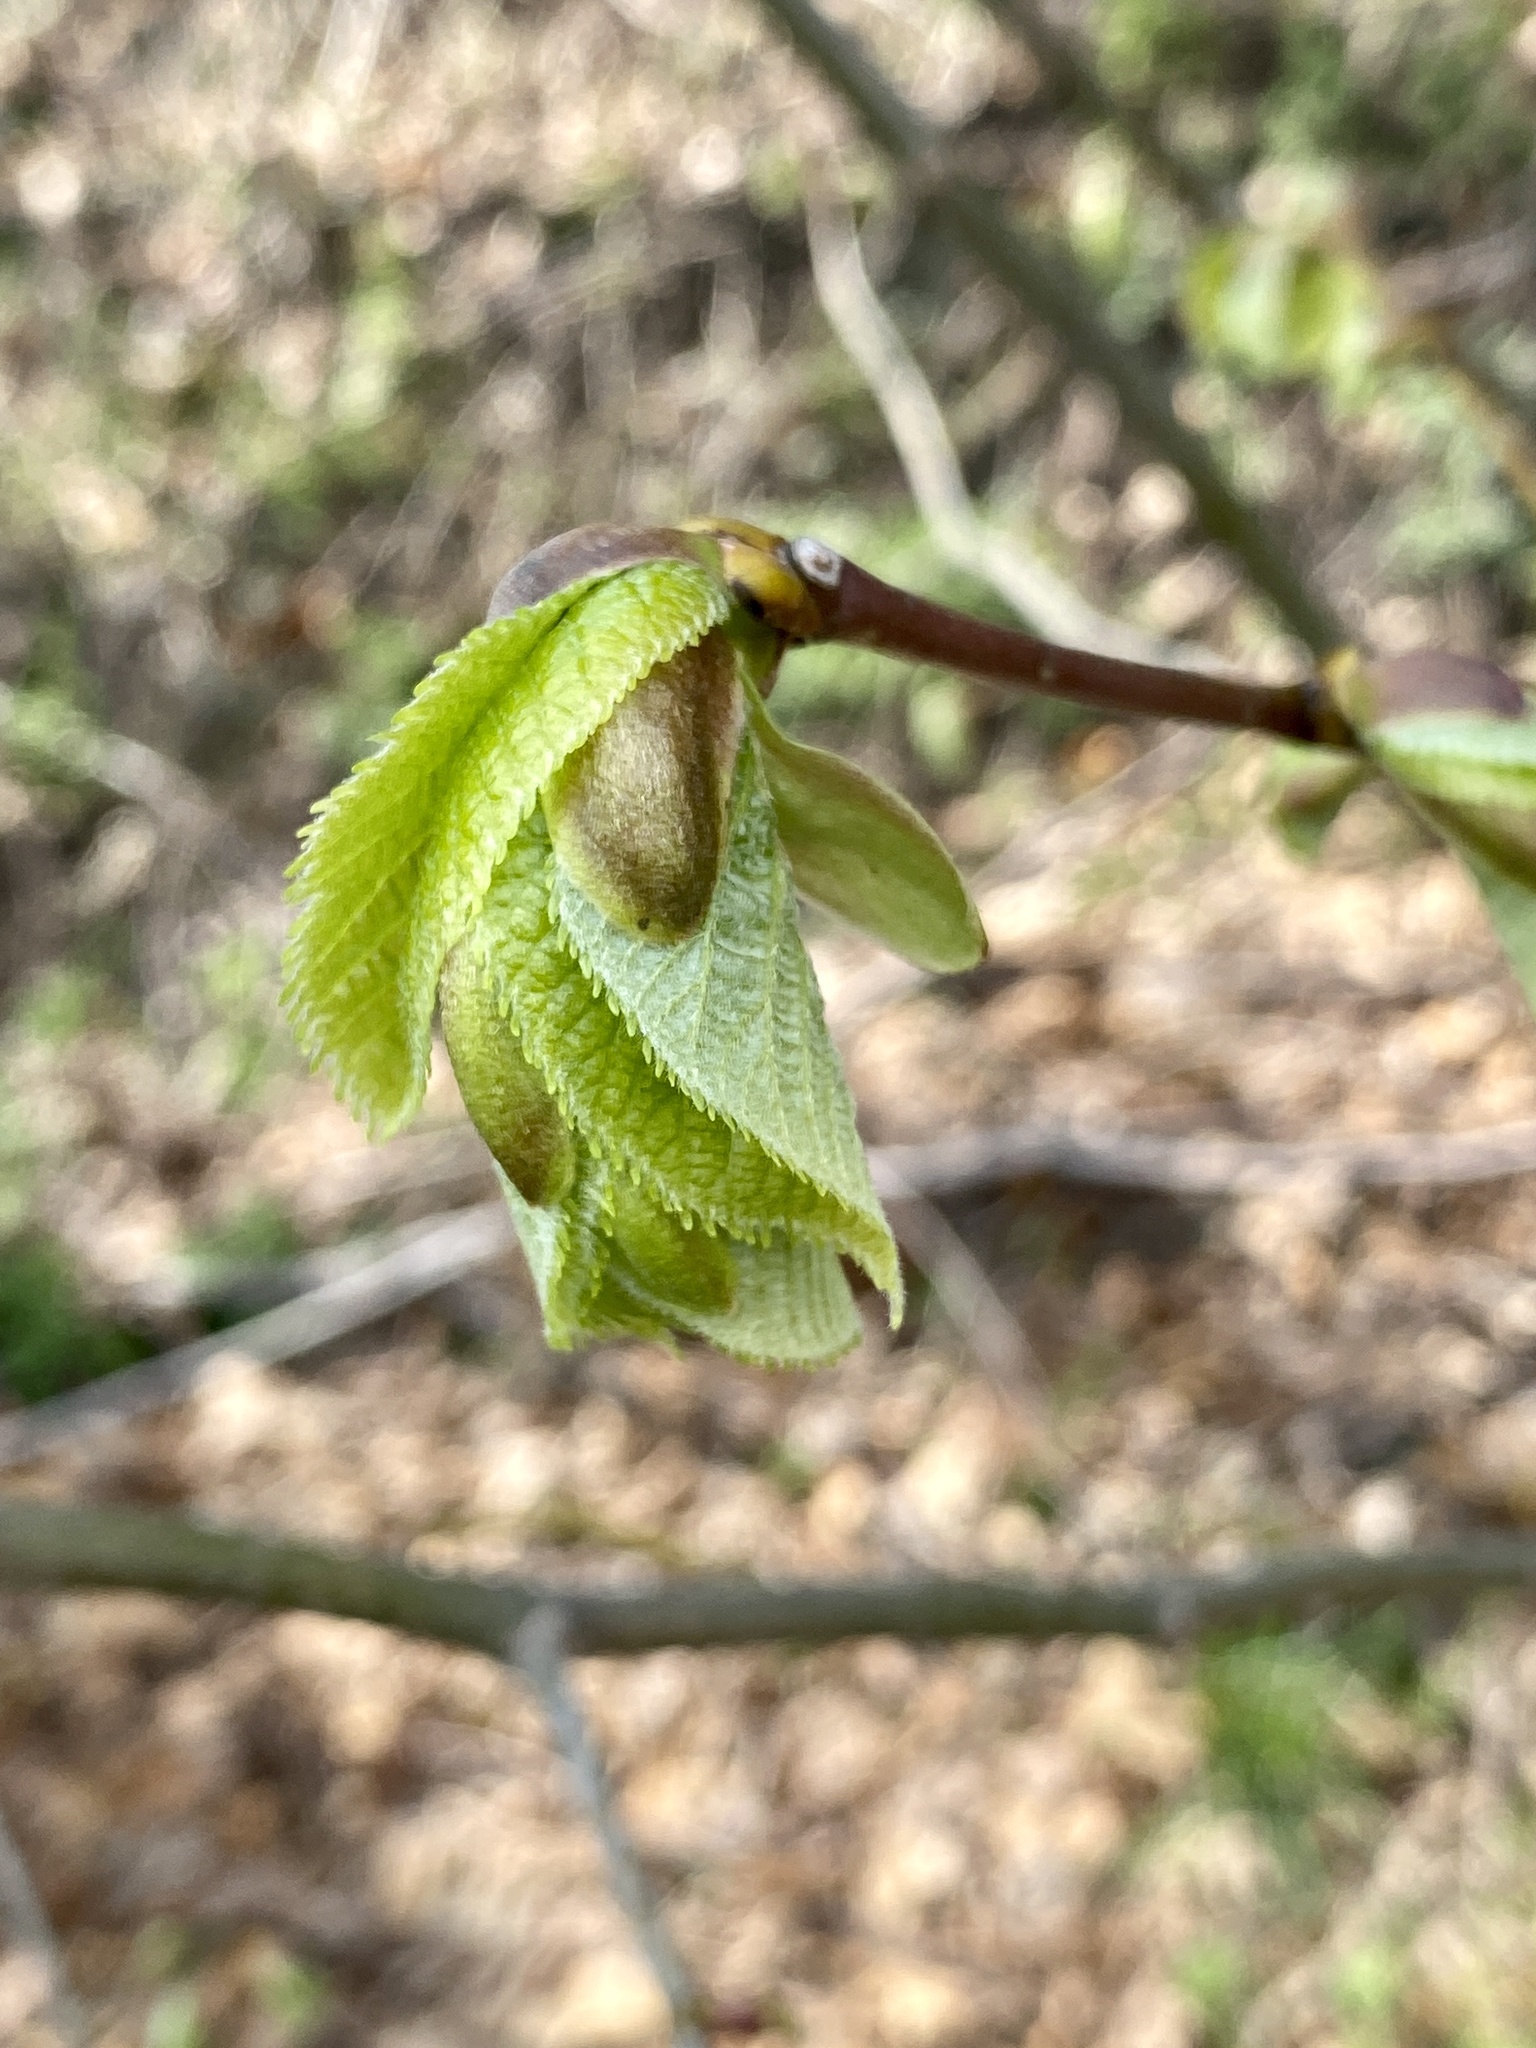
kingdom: Plantae
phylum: Tracheophyta
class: Magnoliopsida
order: Malvales
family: Malvaceae
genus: Tilia
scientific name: Tilia americana
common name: Basswood
